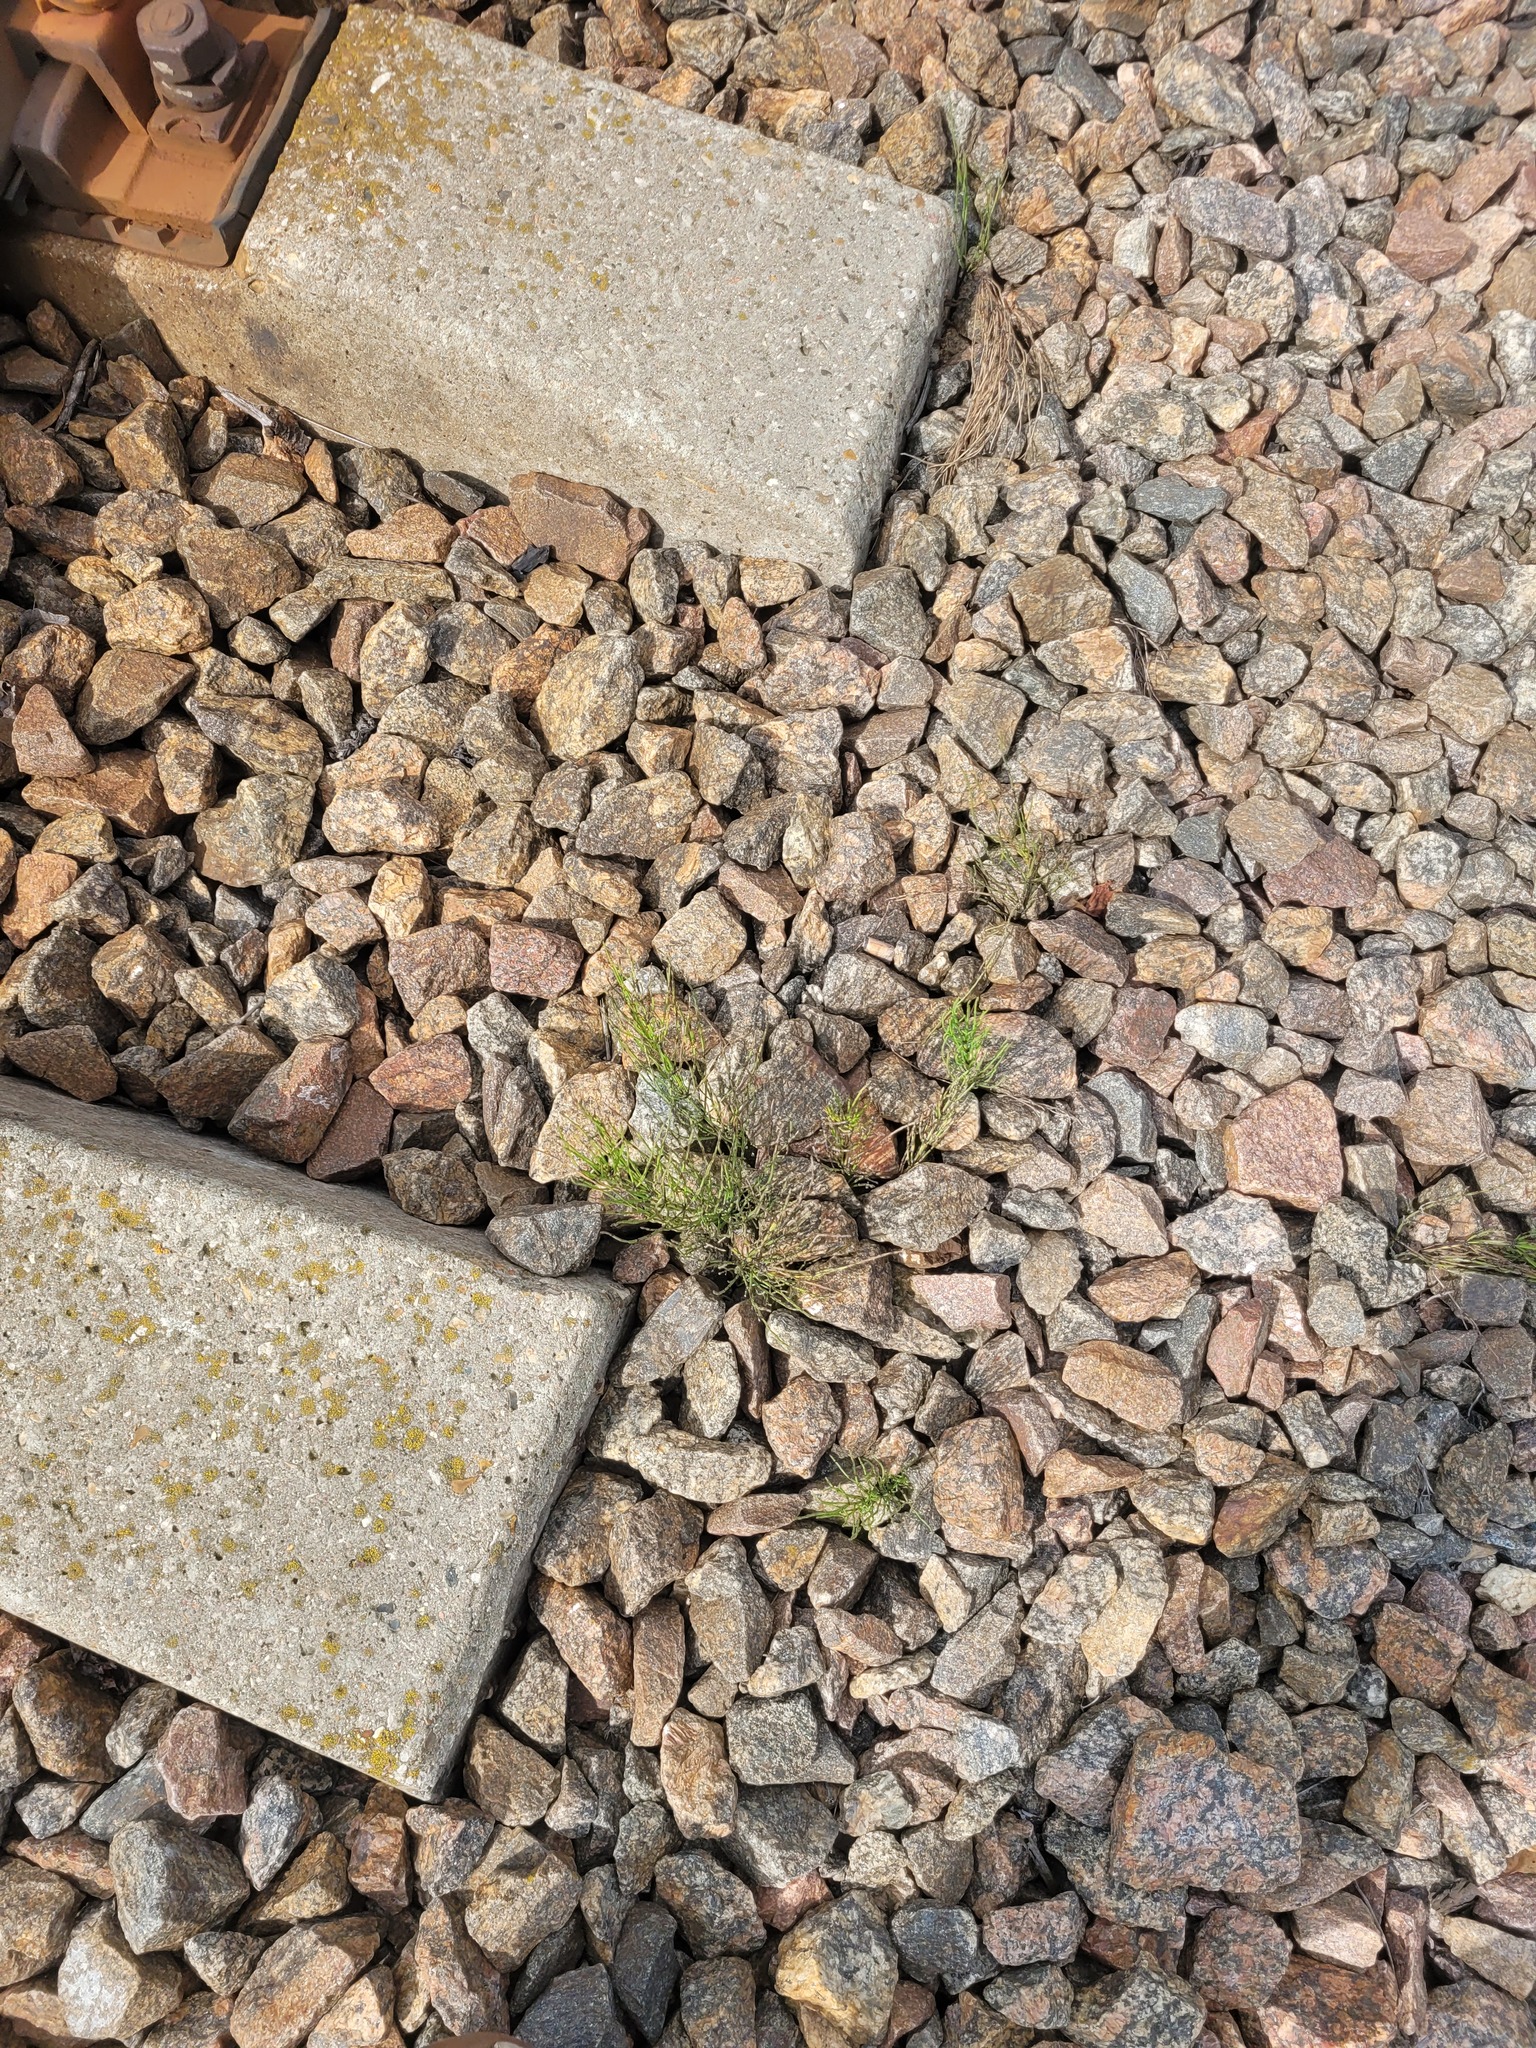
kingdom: Plantae
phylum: Tracheophyta
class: Polypodiopsida
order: Equisetales
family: Equisetaceae
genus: Equisetum
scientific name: Equisetum arvense
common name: Field horsetail
